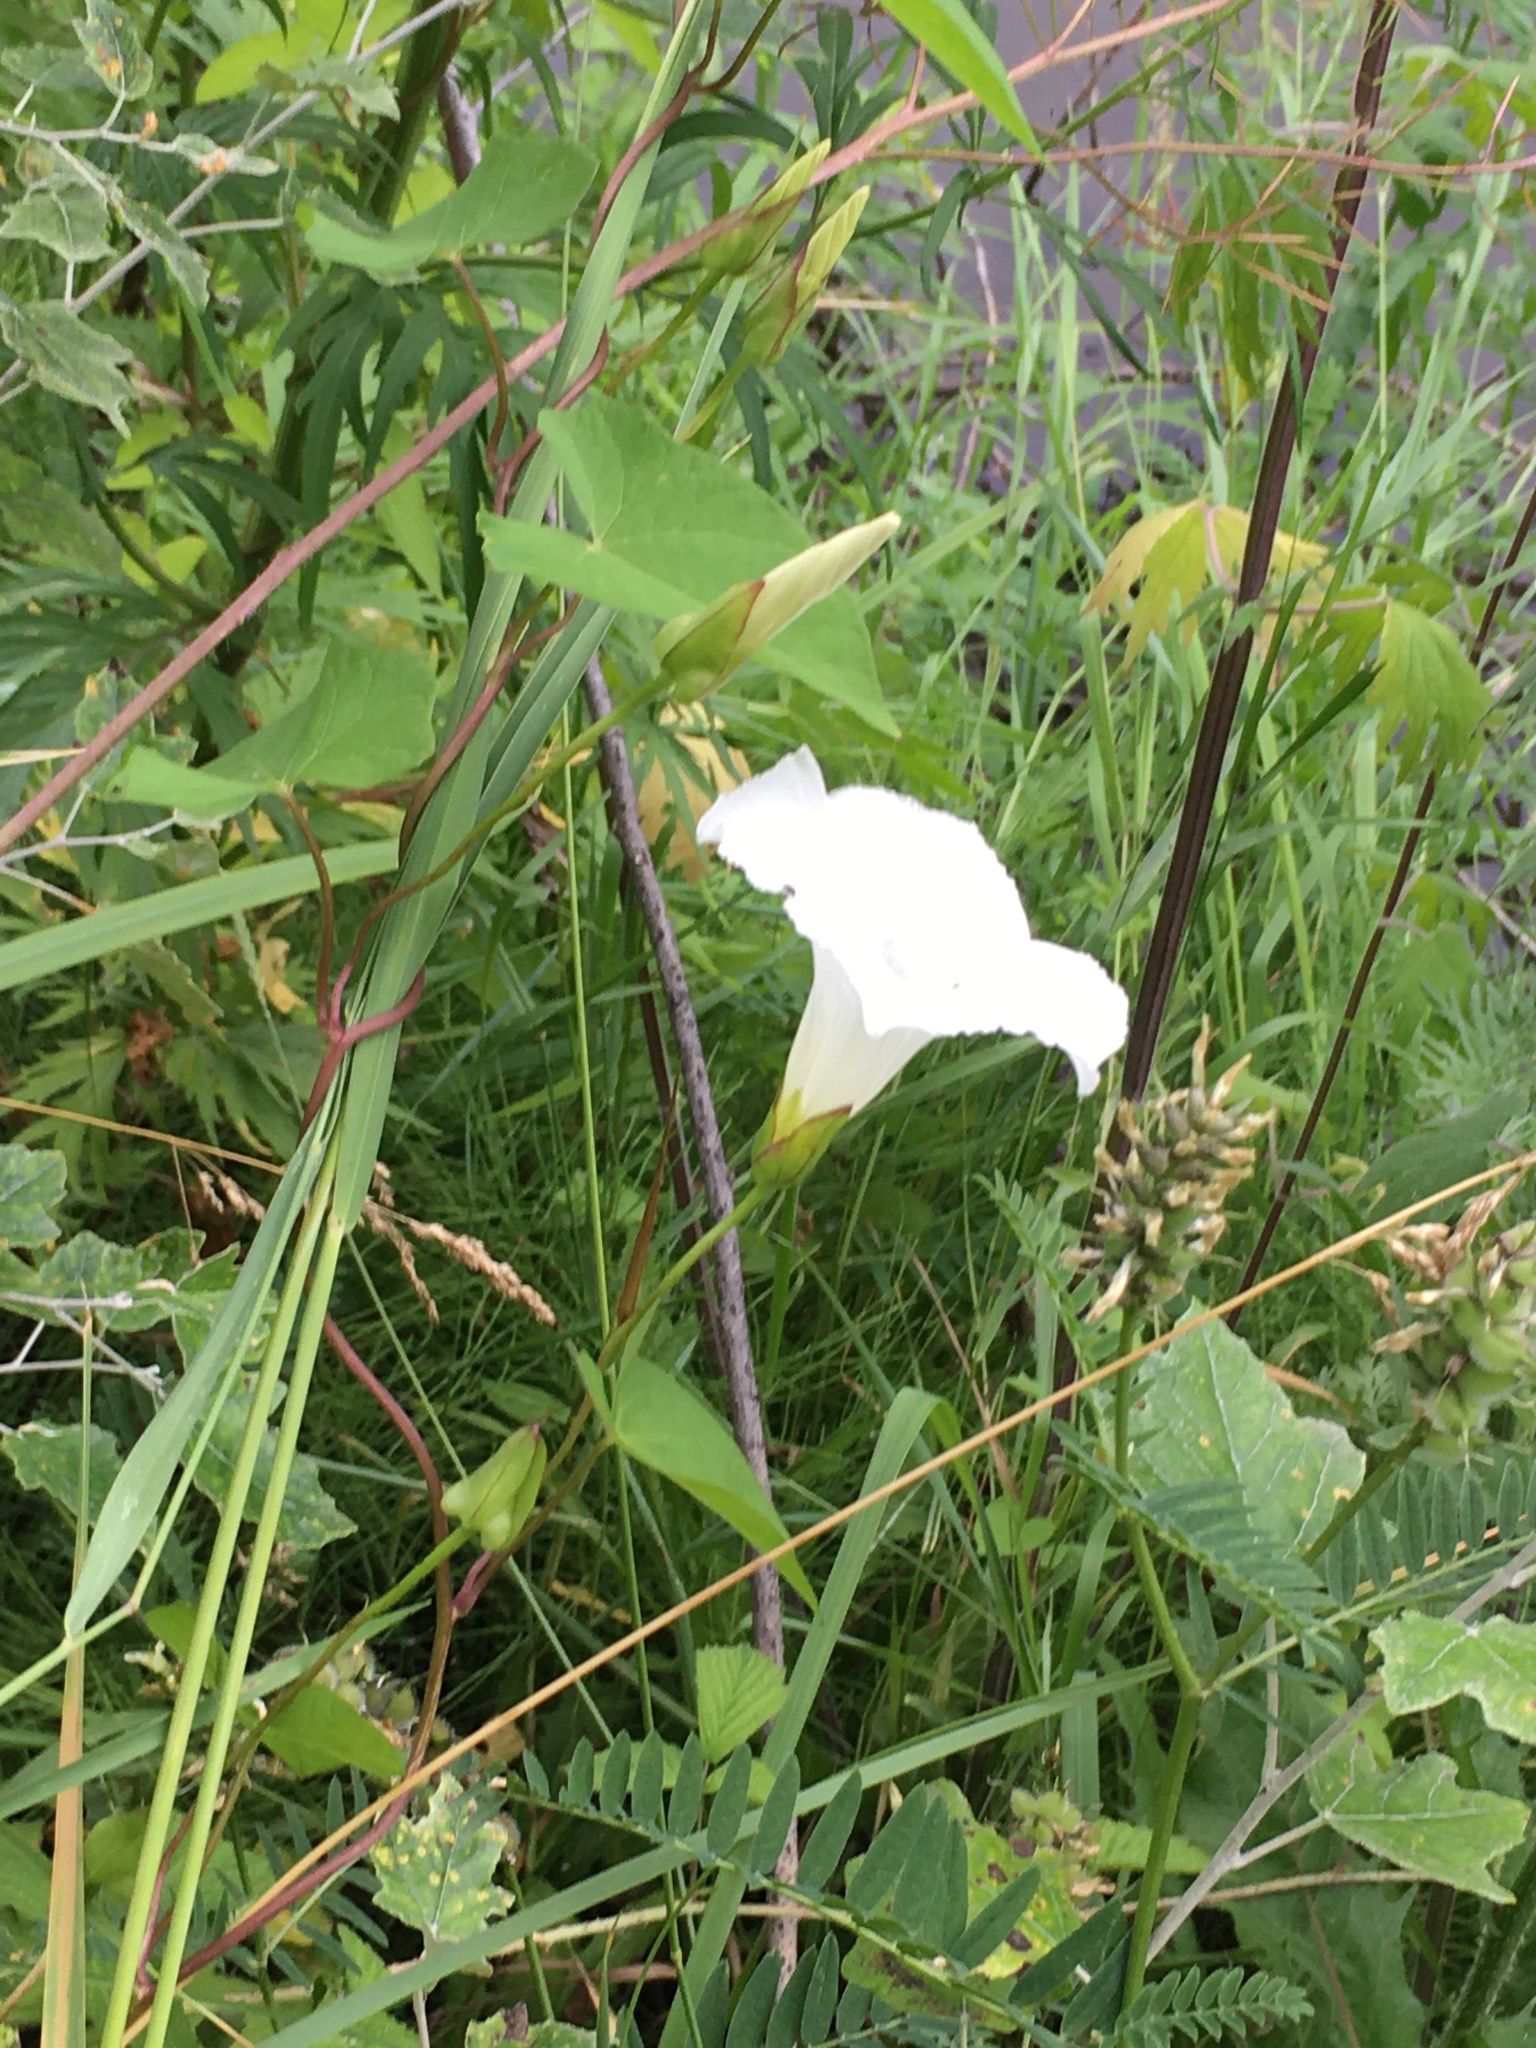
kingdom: Plantae
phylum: Tracheophyta
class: Magnoliopsida
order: Solanales
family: Convolvulaceae
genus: Calystegia
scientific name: Calystegia sepium
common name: Hedge bindweed
